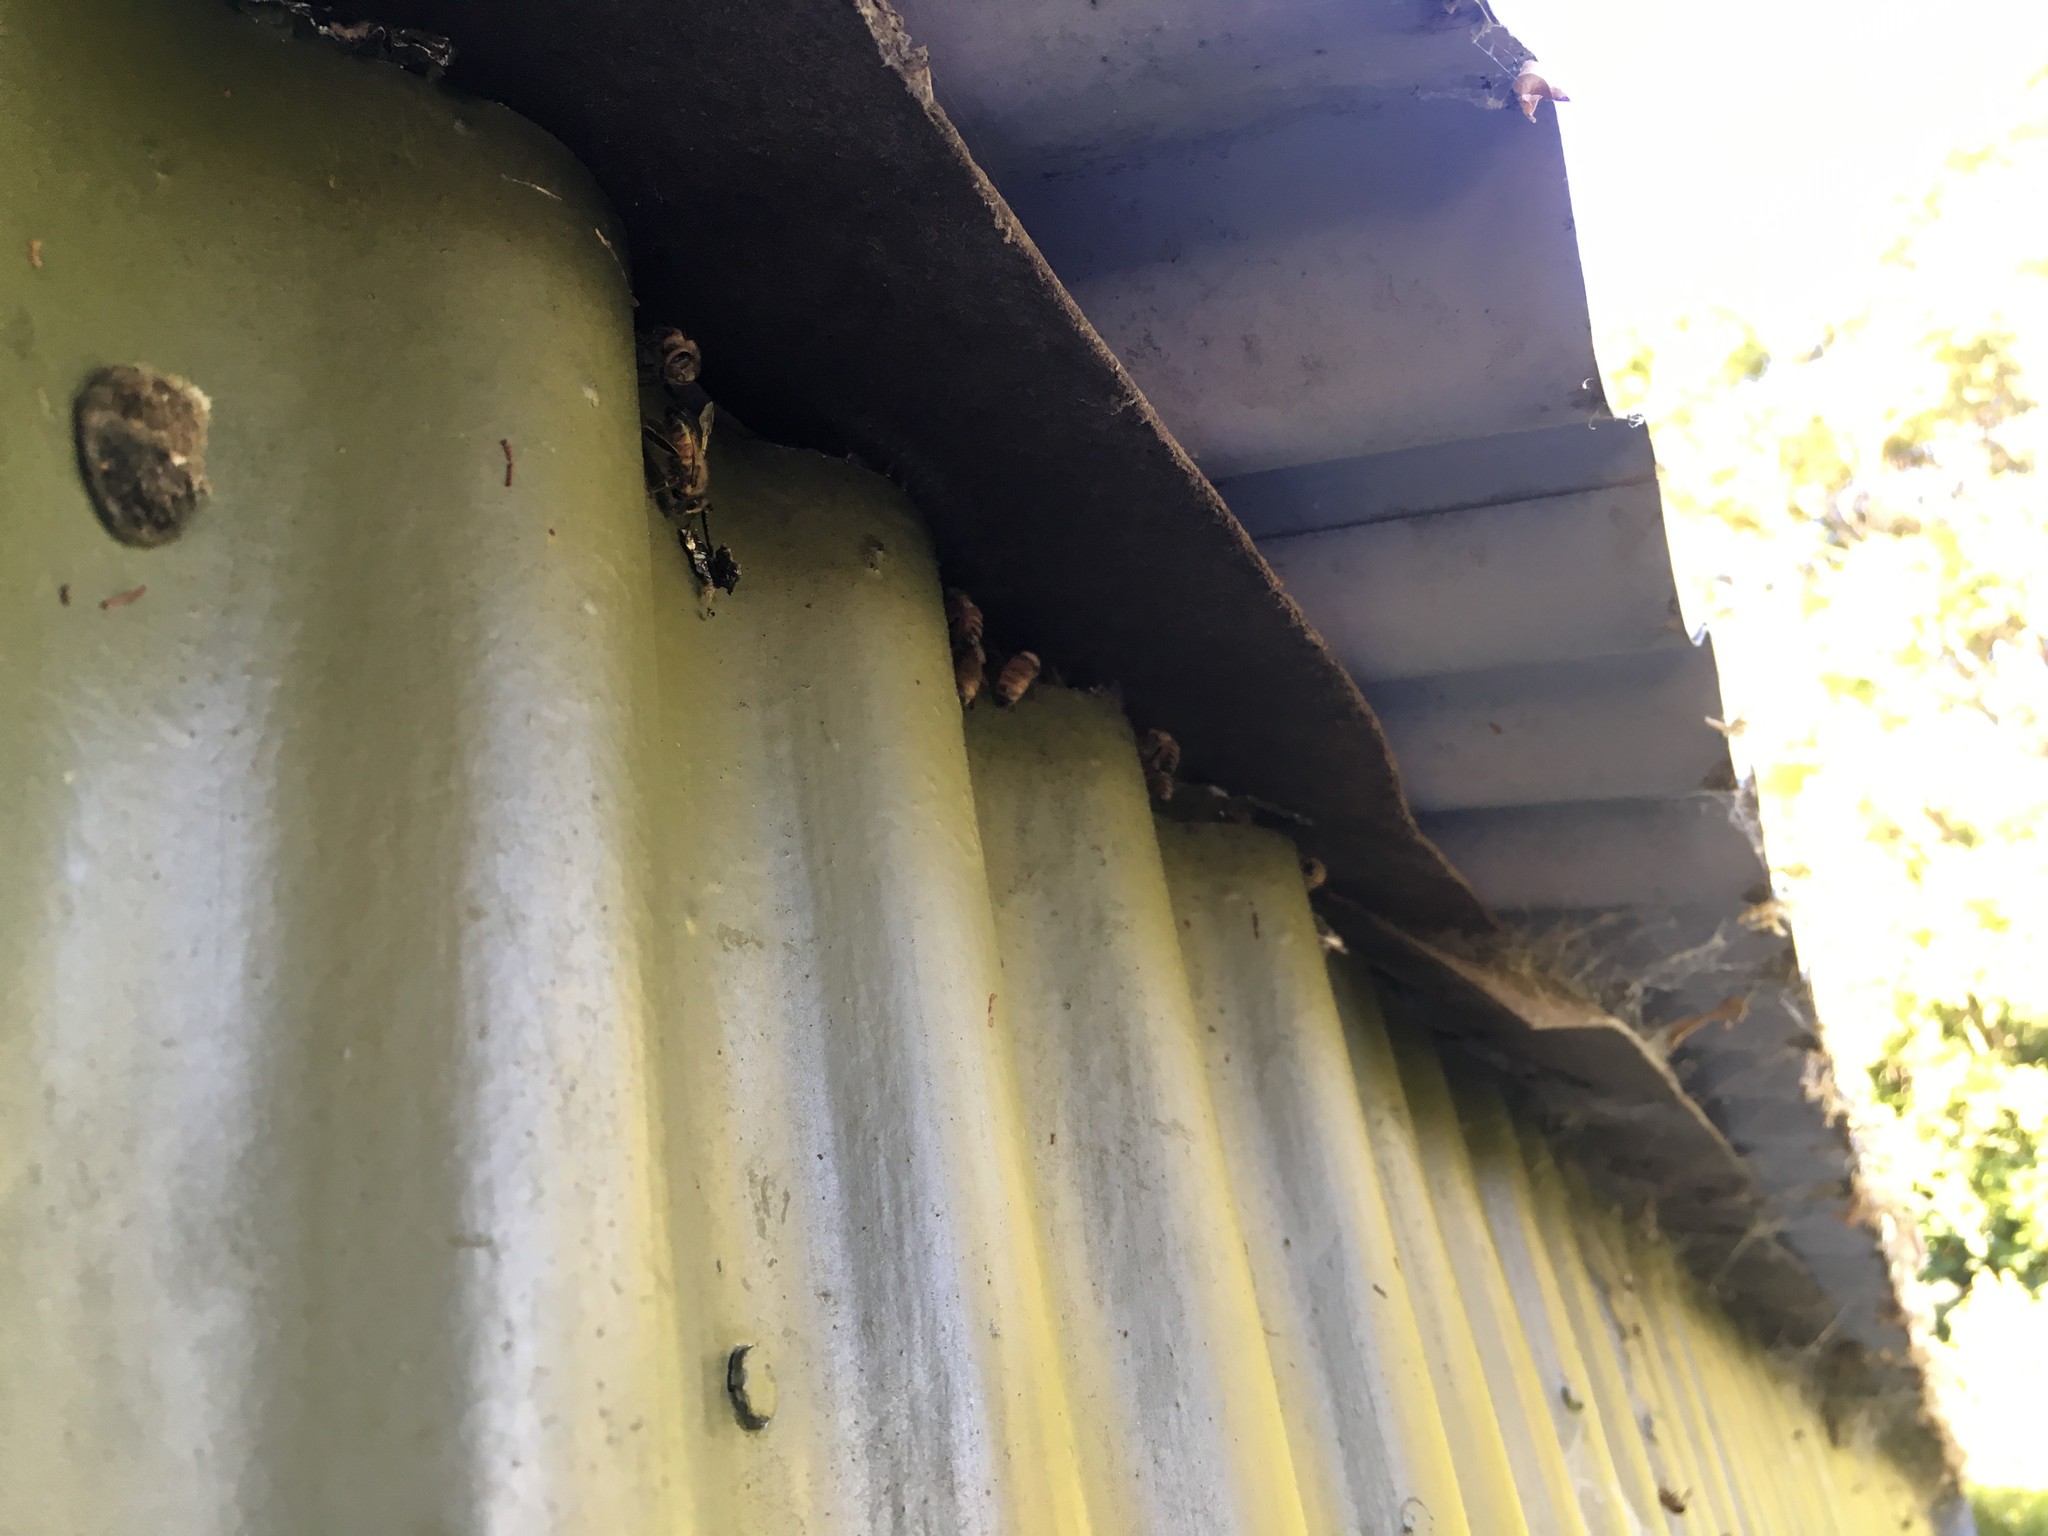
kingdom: Animalia
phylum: Arthropoda
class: Insecta
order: Hymenoptera
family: Apidae
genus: Apis
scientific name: Apis mellifera
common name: Honey bee
